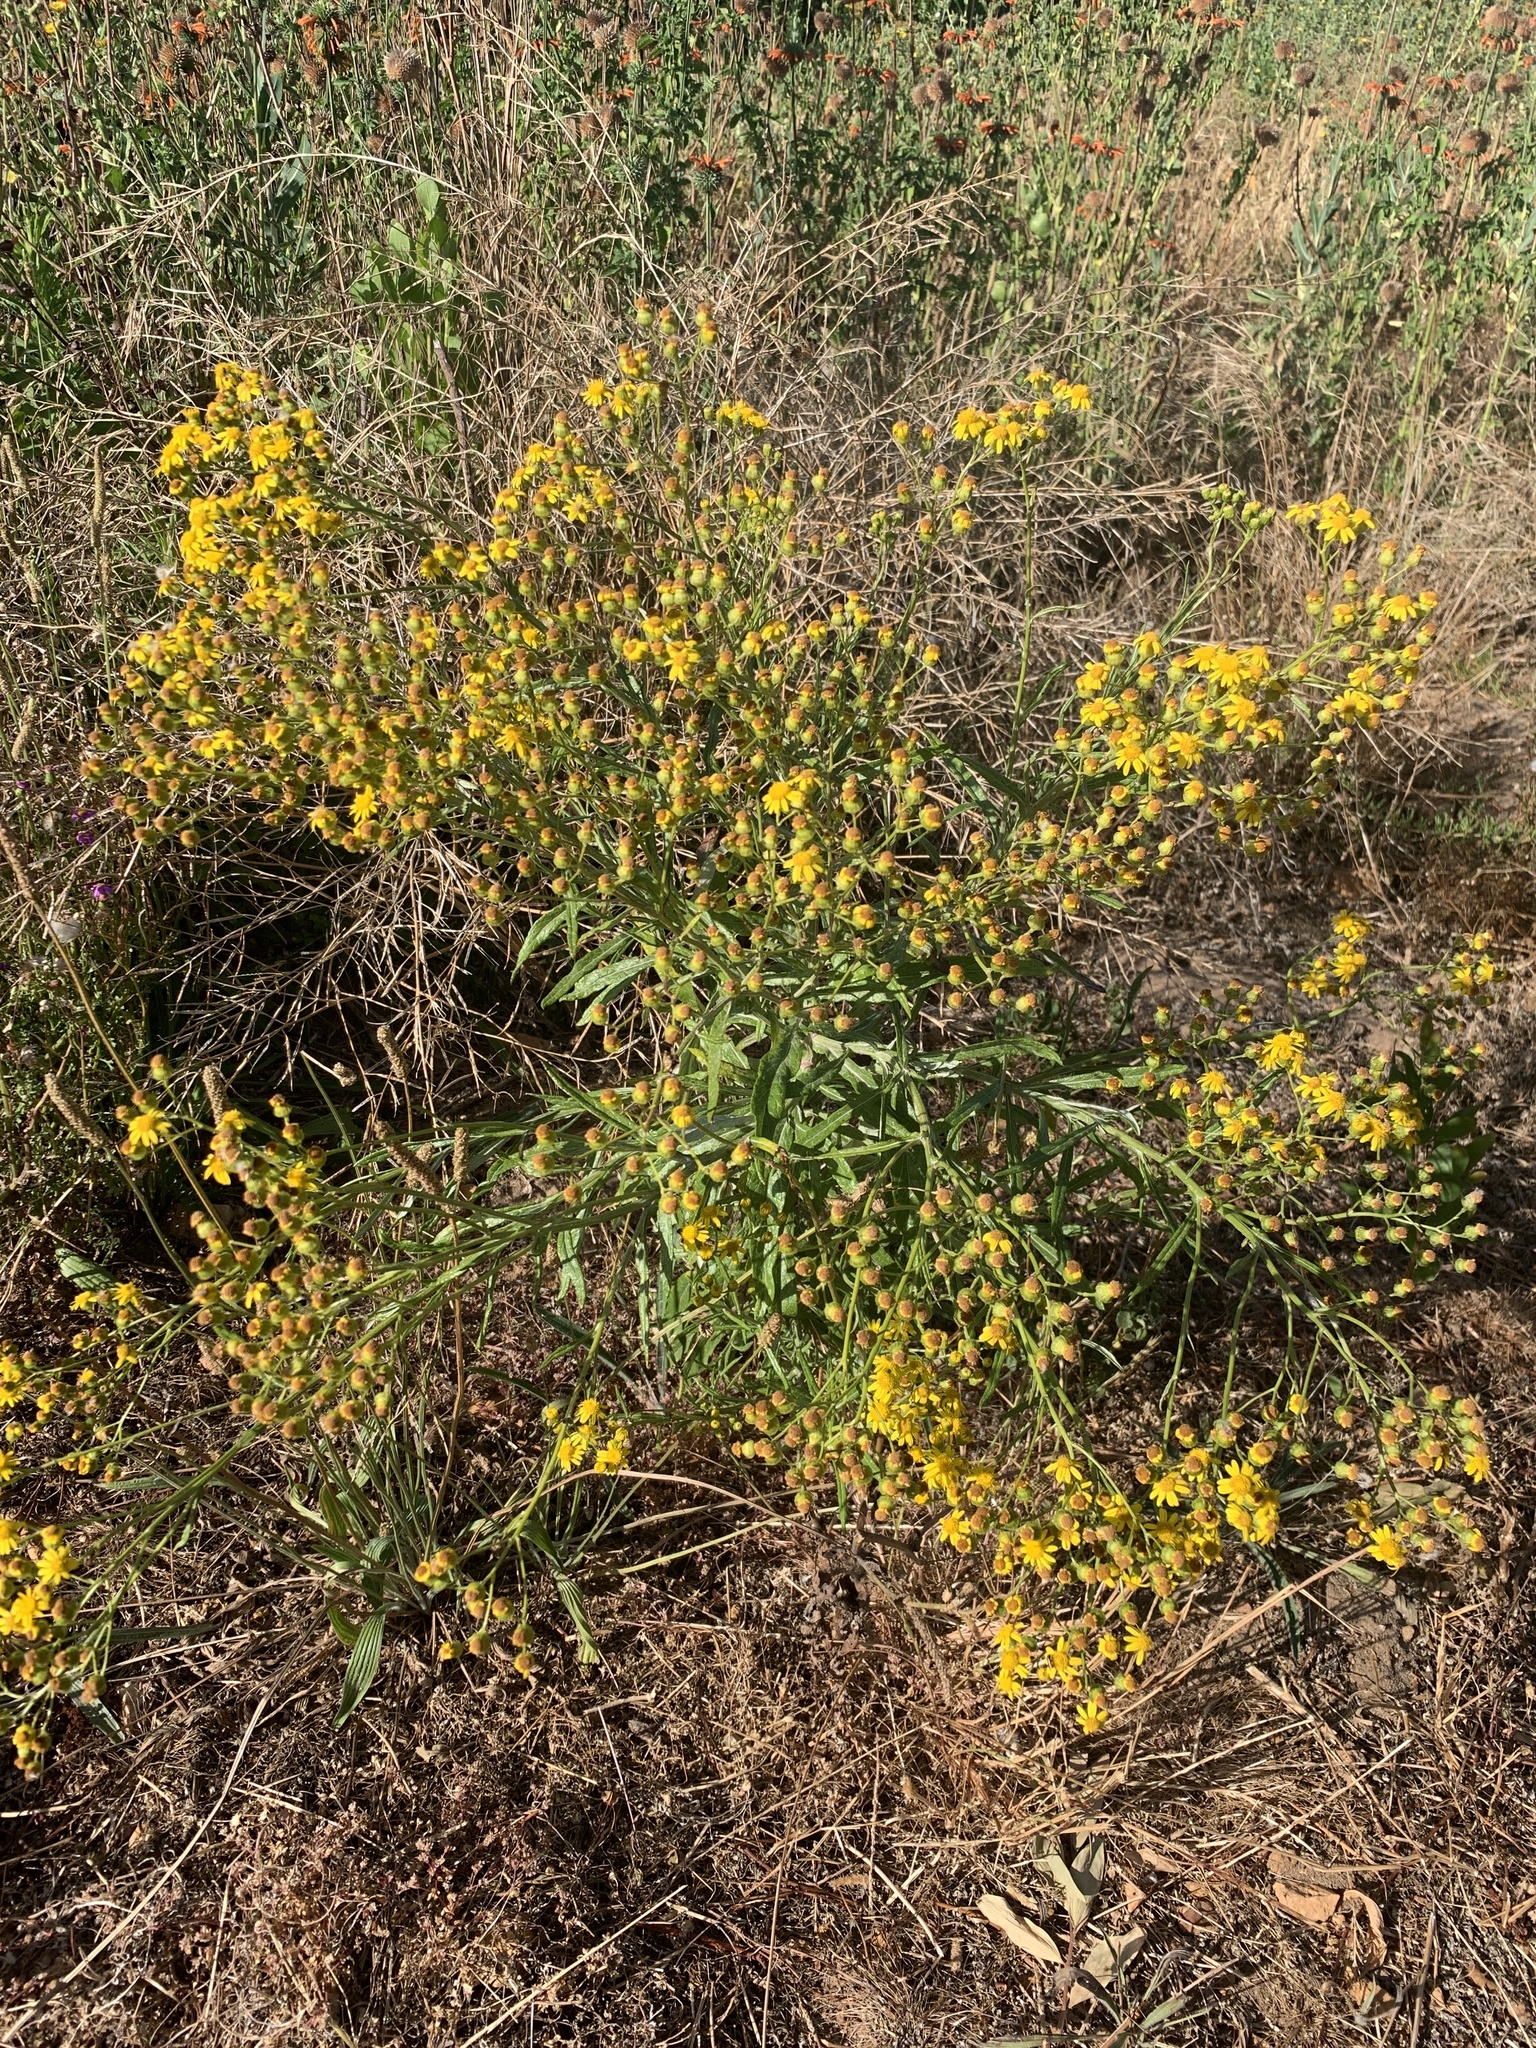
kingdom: Plantae
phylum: Tracheophyta
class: Magnoliopsida
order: Asterales
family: Asteraceae
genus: Senecio
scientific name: Senecio pterophorus
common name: Shoddy ragwort
